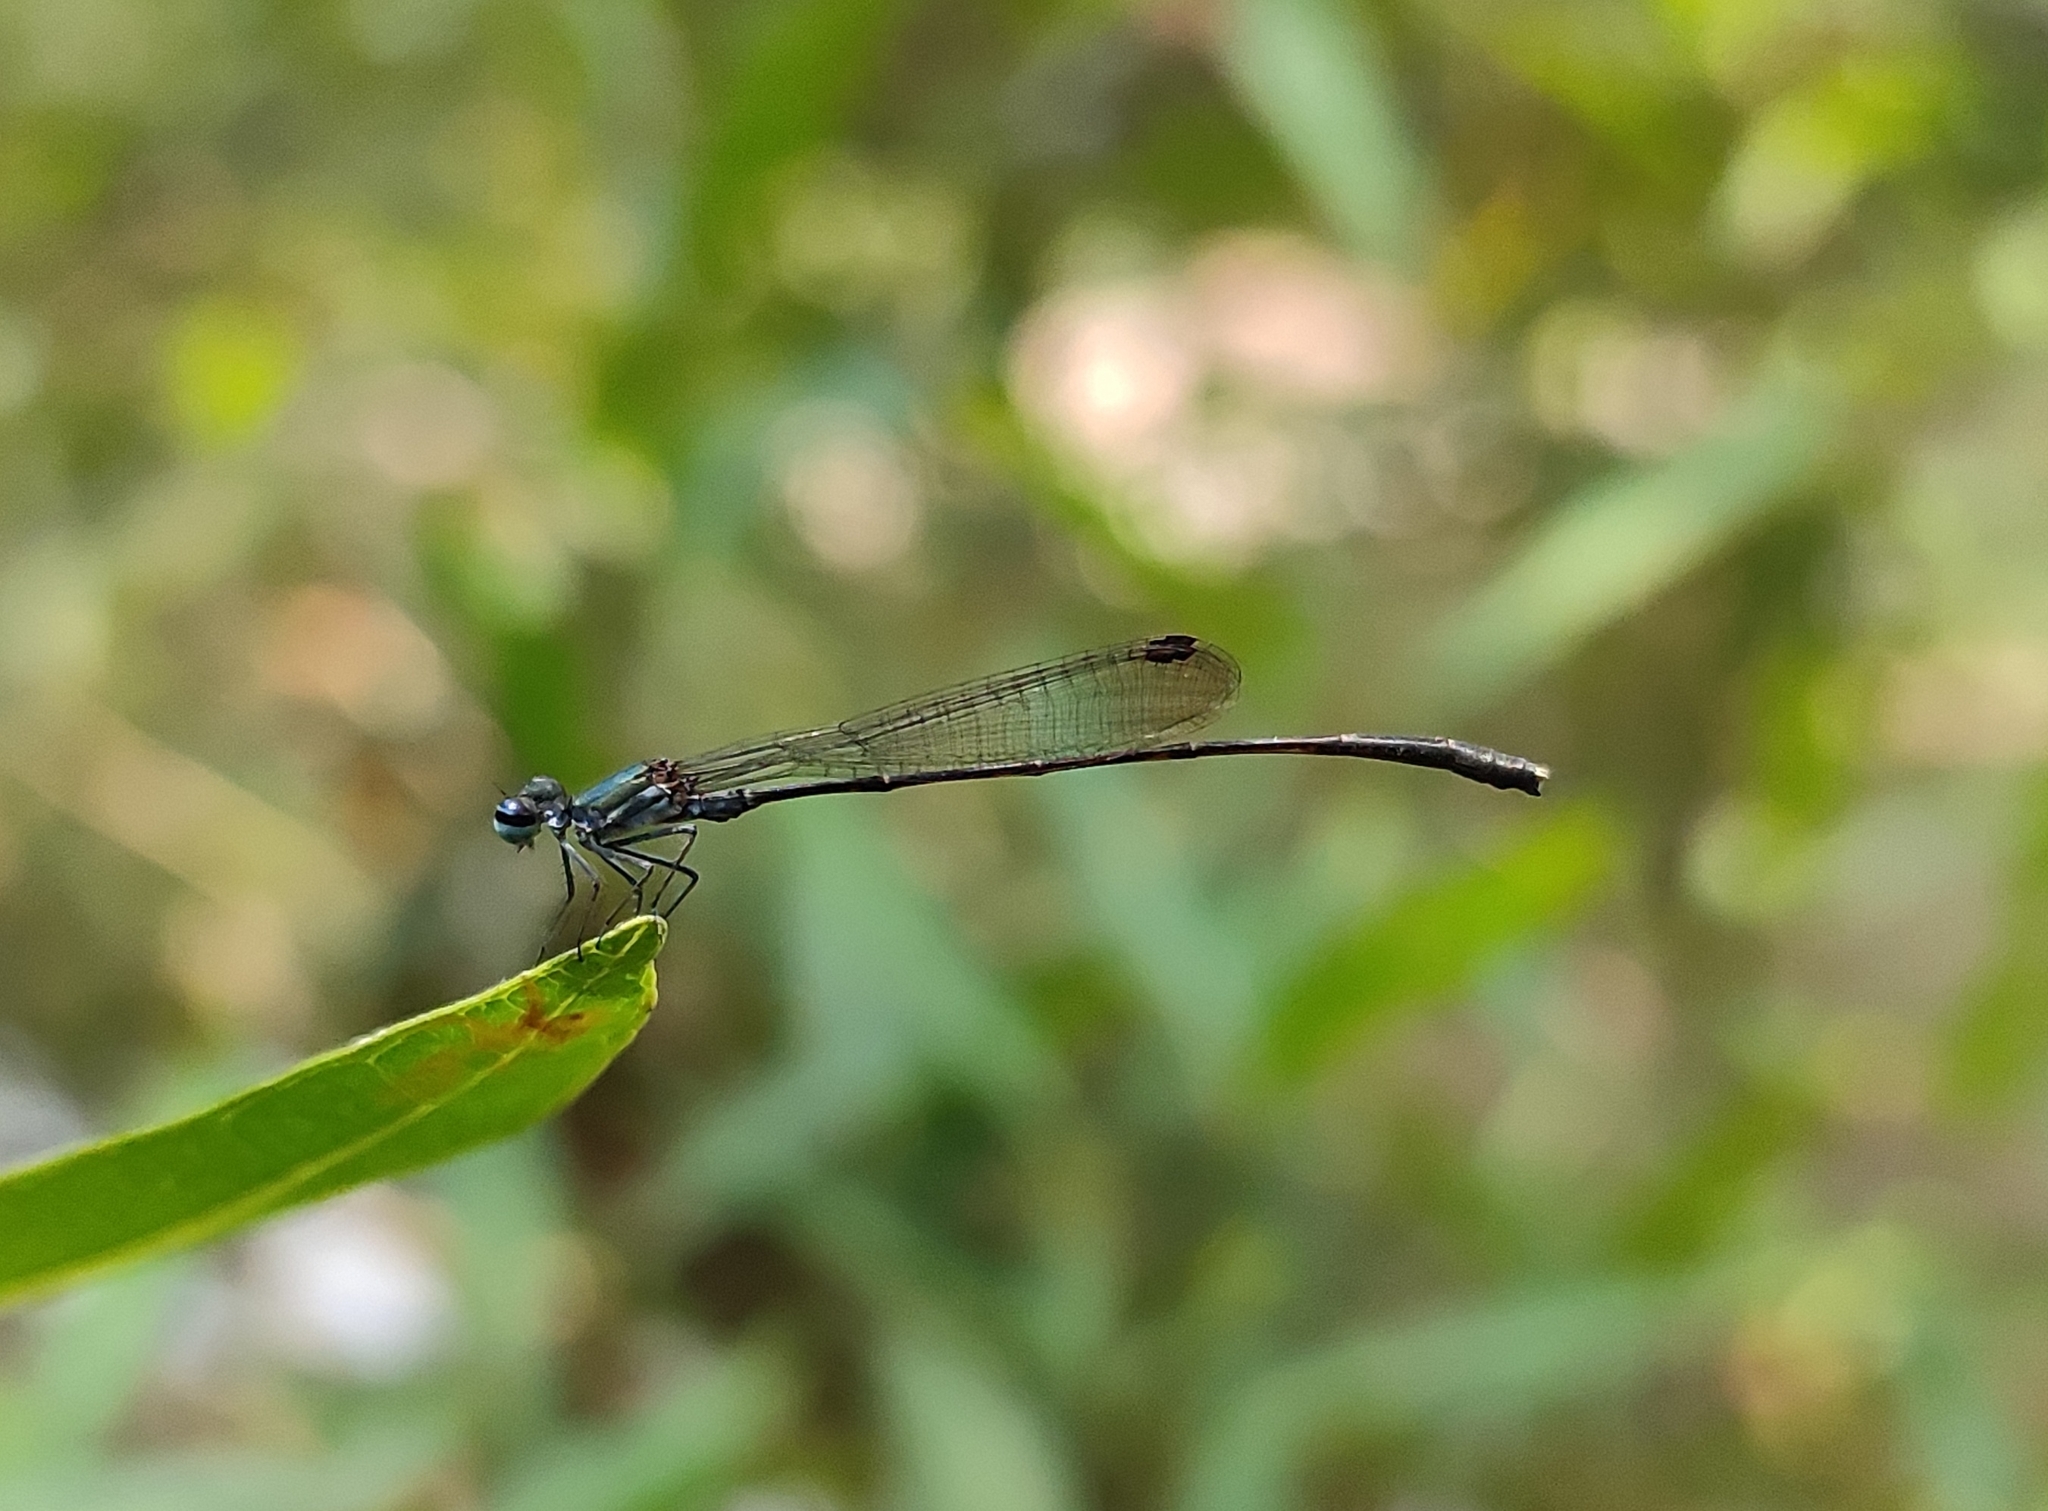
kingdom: Animalia
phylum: Arthropoda
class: Insecta
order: Odonata
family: Platycnemididae
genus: Elattoneura
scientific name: Elattoneura tetrica
